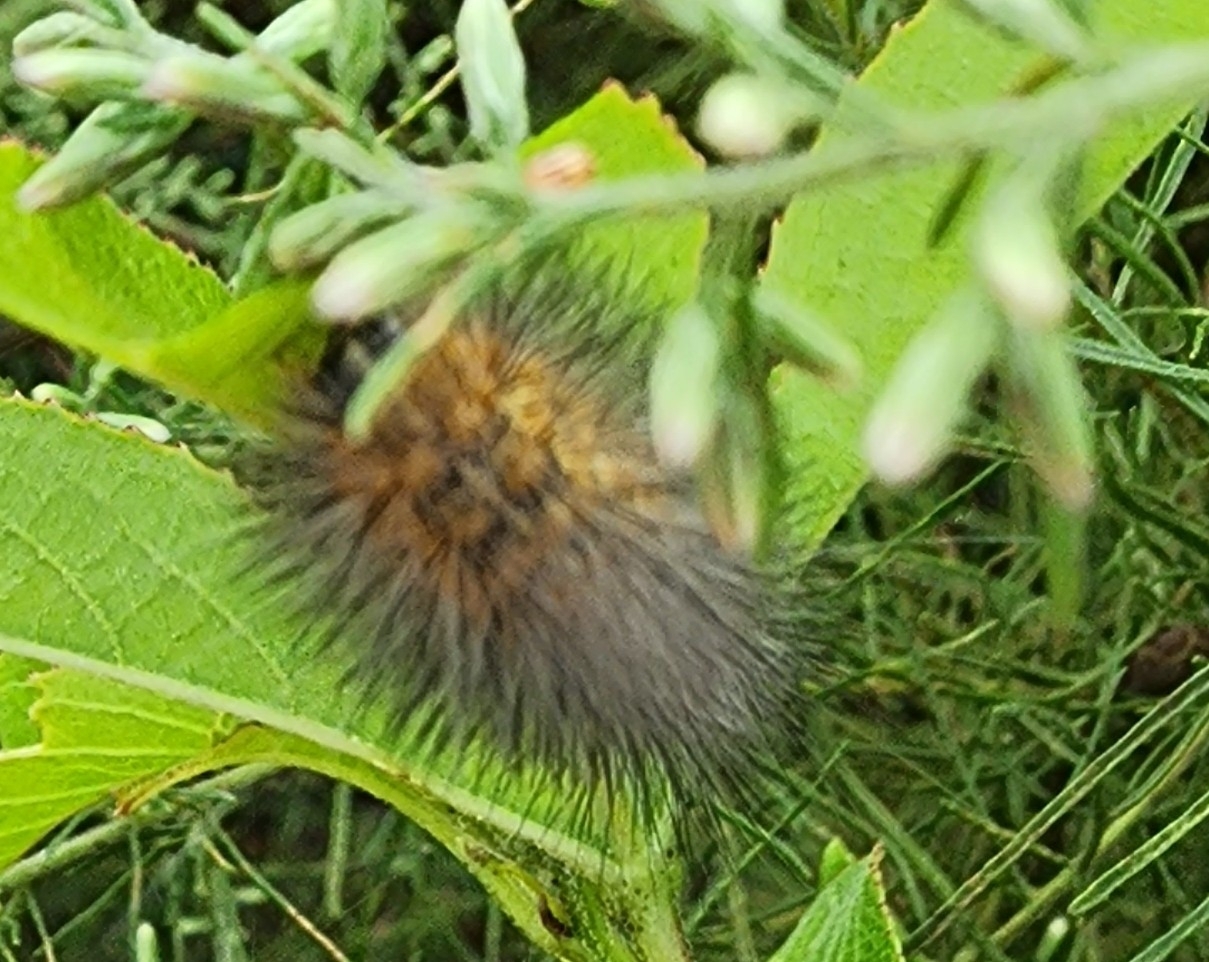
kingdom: Animalia
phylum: Arthropoda
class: Insecta
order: Lepidoptera
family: Erebidae
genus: Estigmene
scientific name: Estigmene acrea
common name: Salt marsh moth
